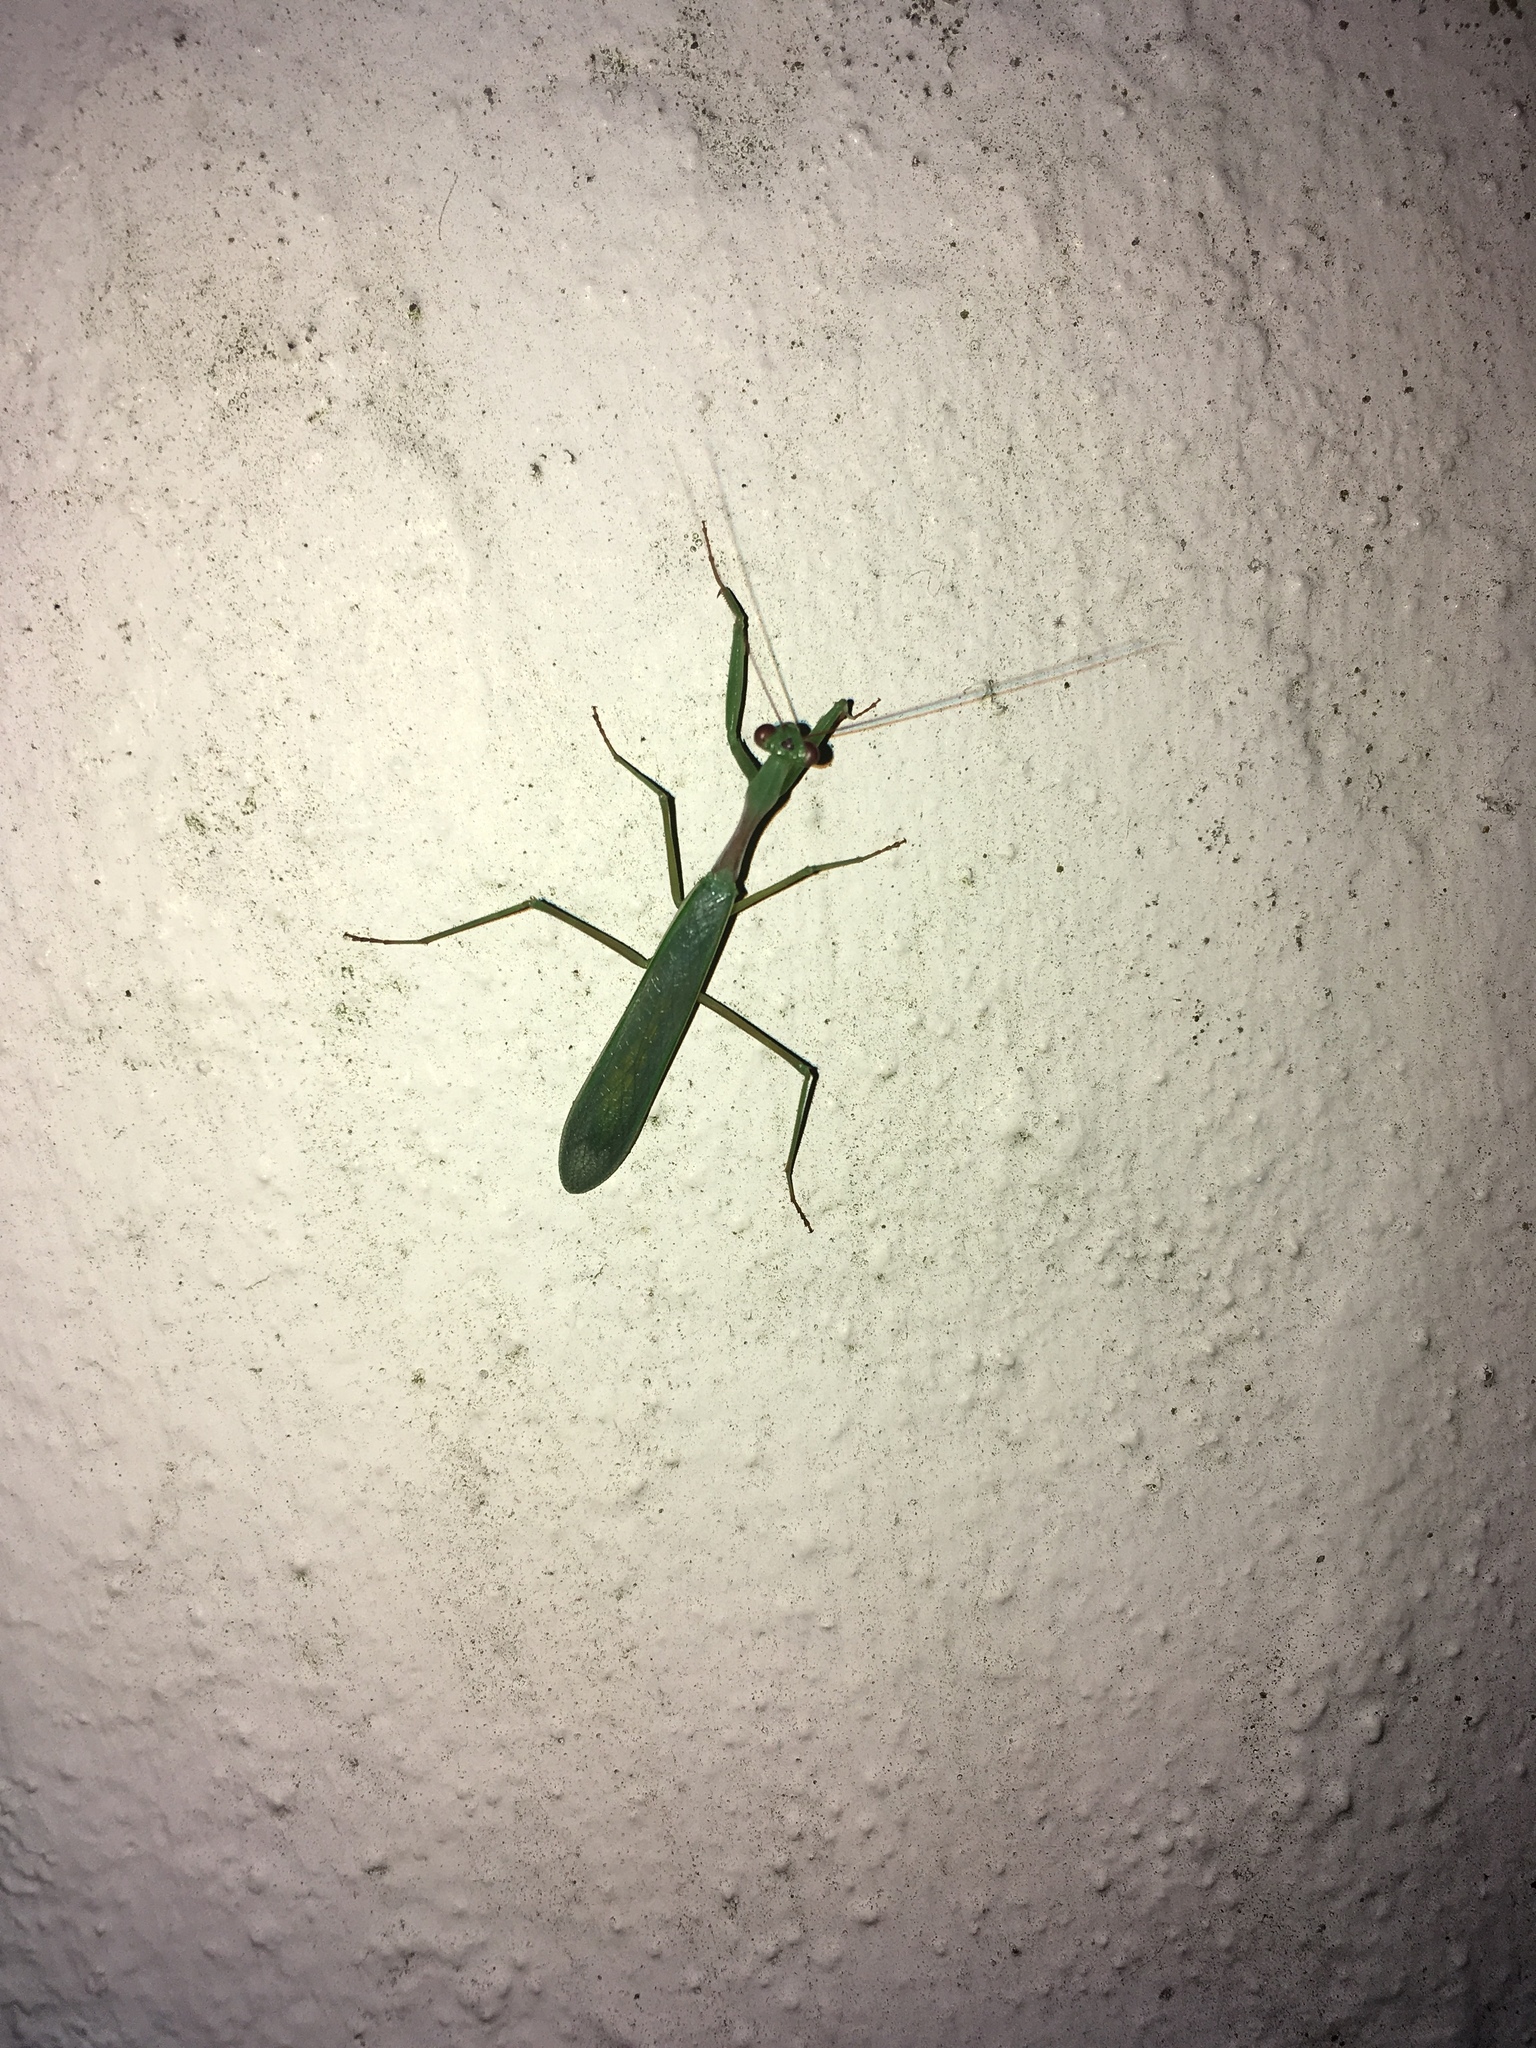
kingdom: Animalia
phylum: Arthropoda
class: Insecta
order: Mantodea
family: Miomantidae
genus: Miomantis
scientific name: Miomantis caffra
